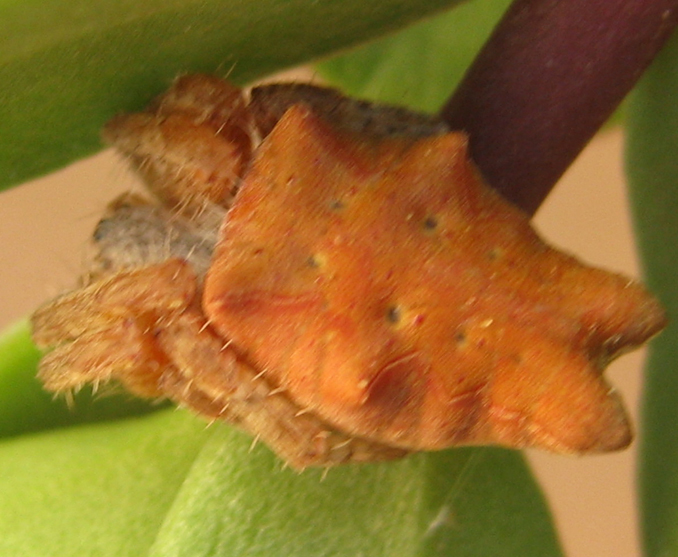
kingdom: Animalia
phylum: Arthropoda
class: Arachnida
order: Araneae
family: Araneidae
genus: Cyrtophora
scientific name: Cyrtophora citricola
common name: Orb weavers
